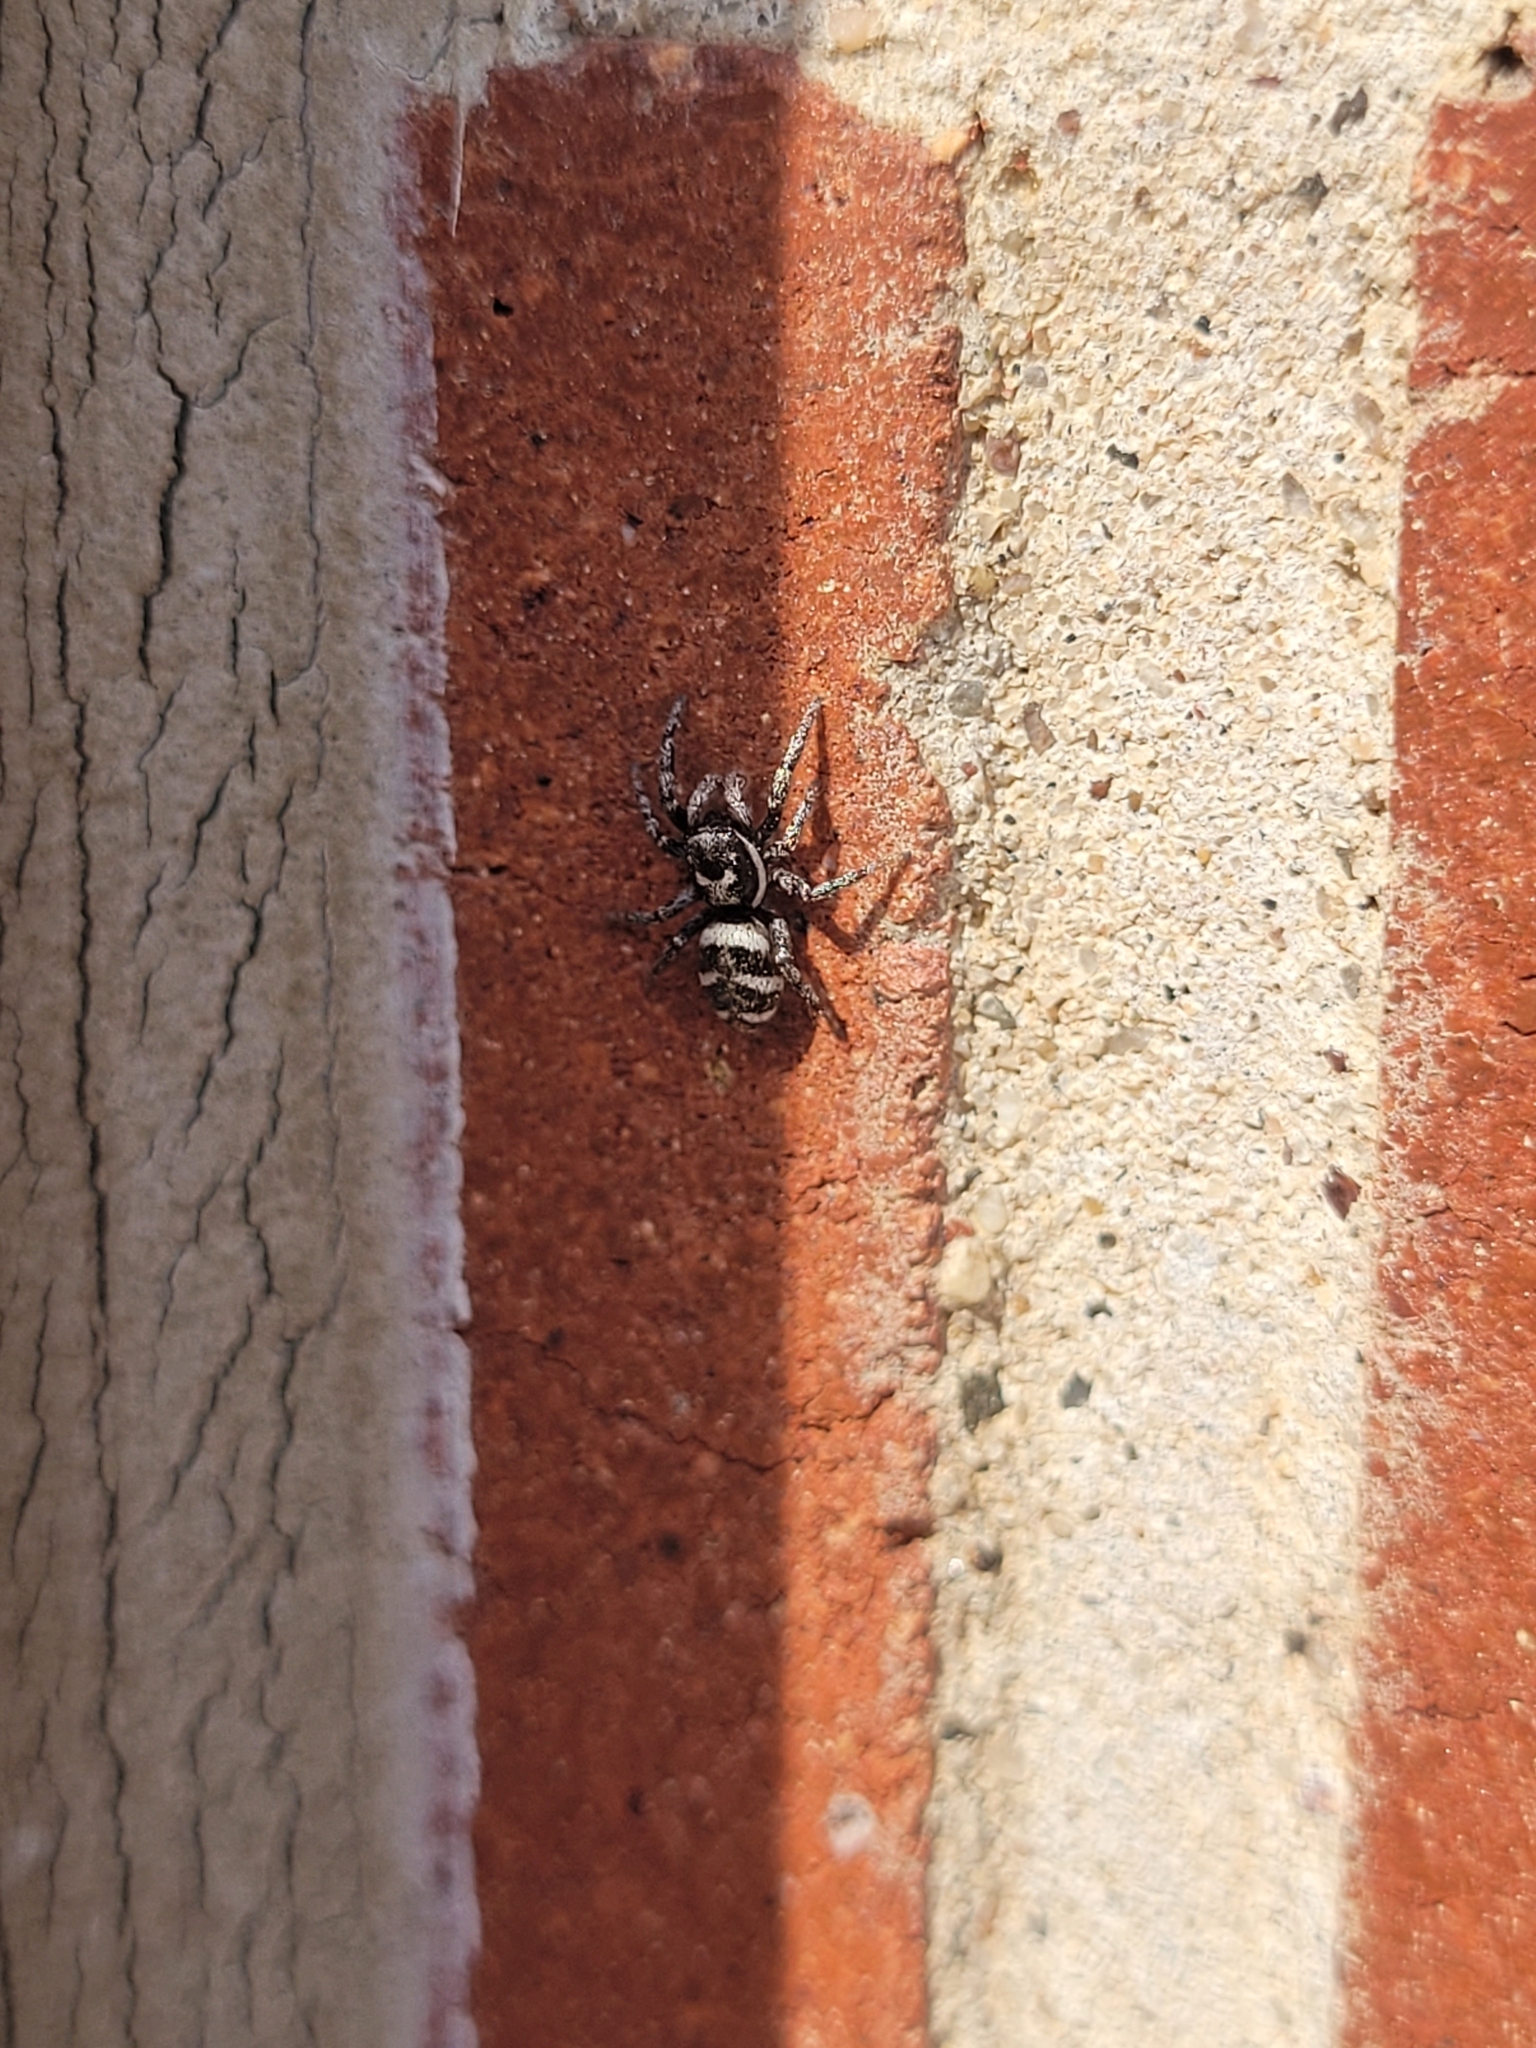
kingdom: Animalia
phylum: Arthropoda
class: Arachnida
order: Araneae
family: Salticidae
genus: Salticus
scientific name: Salticus scenicus
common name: Zebra jumper
